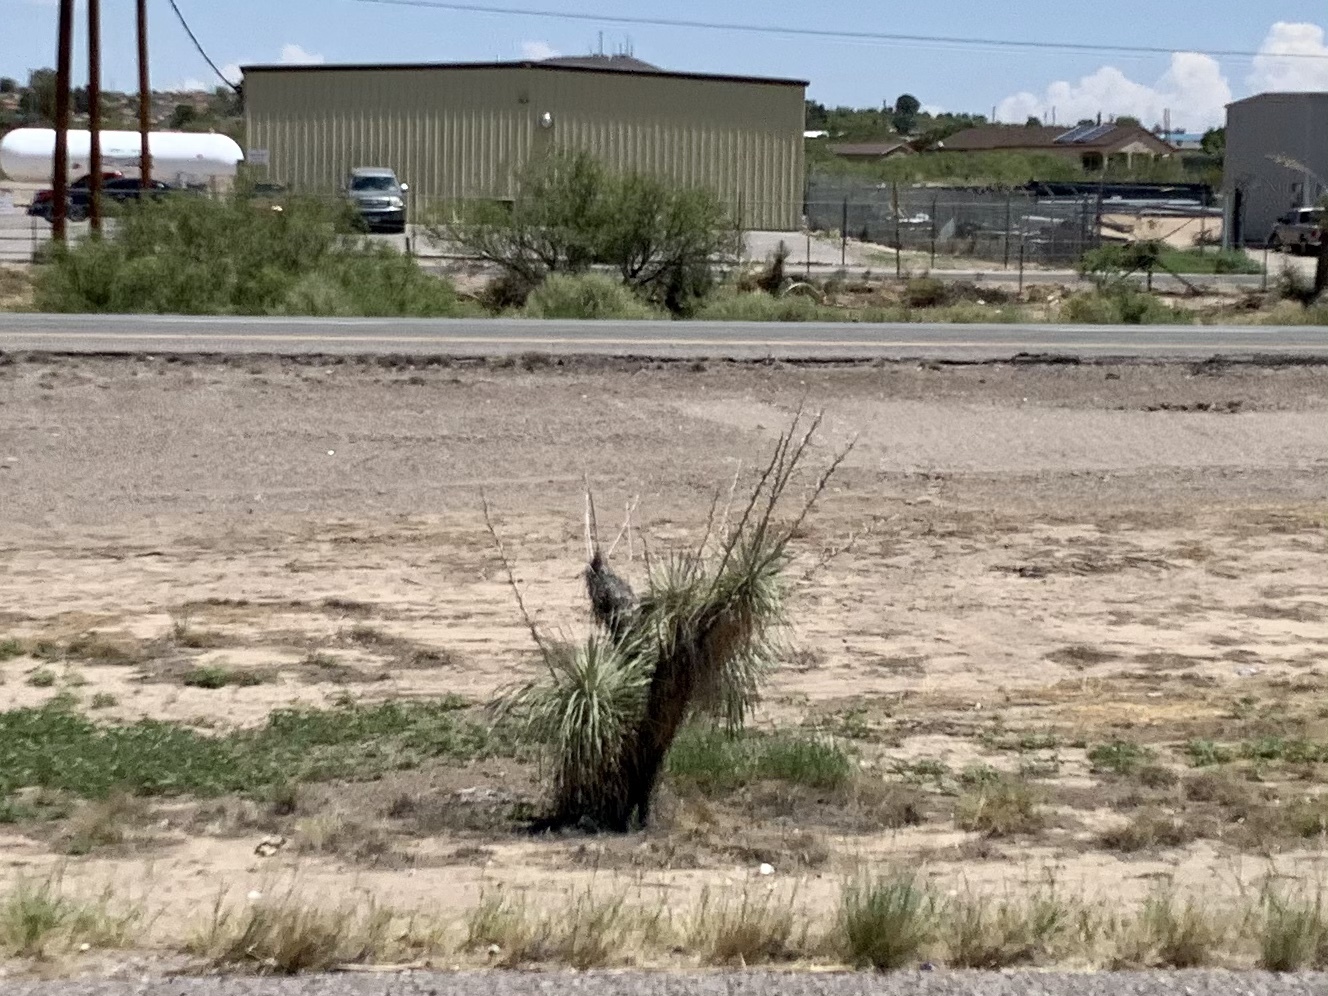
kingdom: Plantae
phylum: Tracheophyta
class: Liliopsida
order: Asparagales
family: Asparagaceae
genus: Yucca
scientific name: Yucca elata
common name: Palmella
